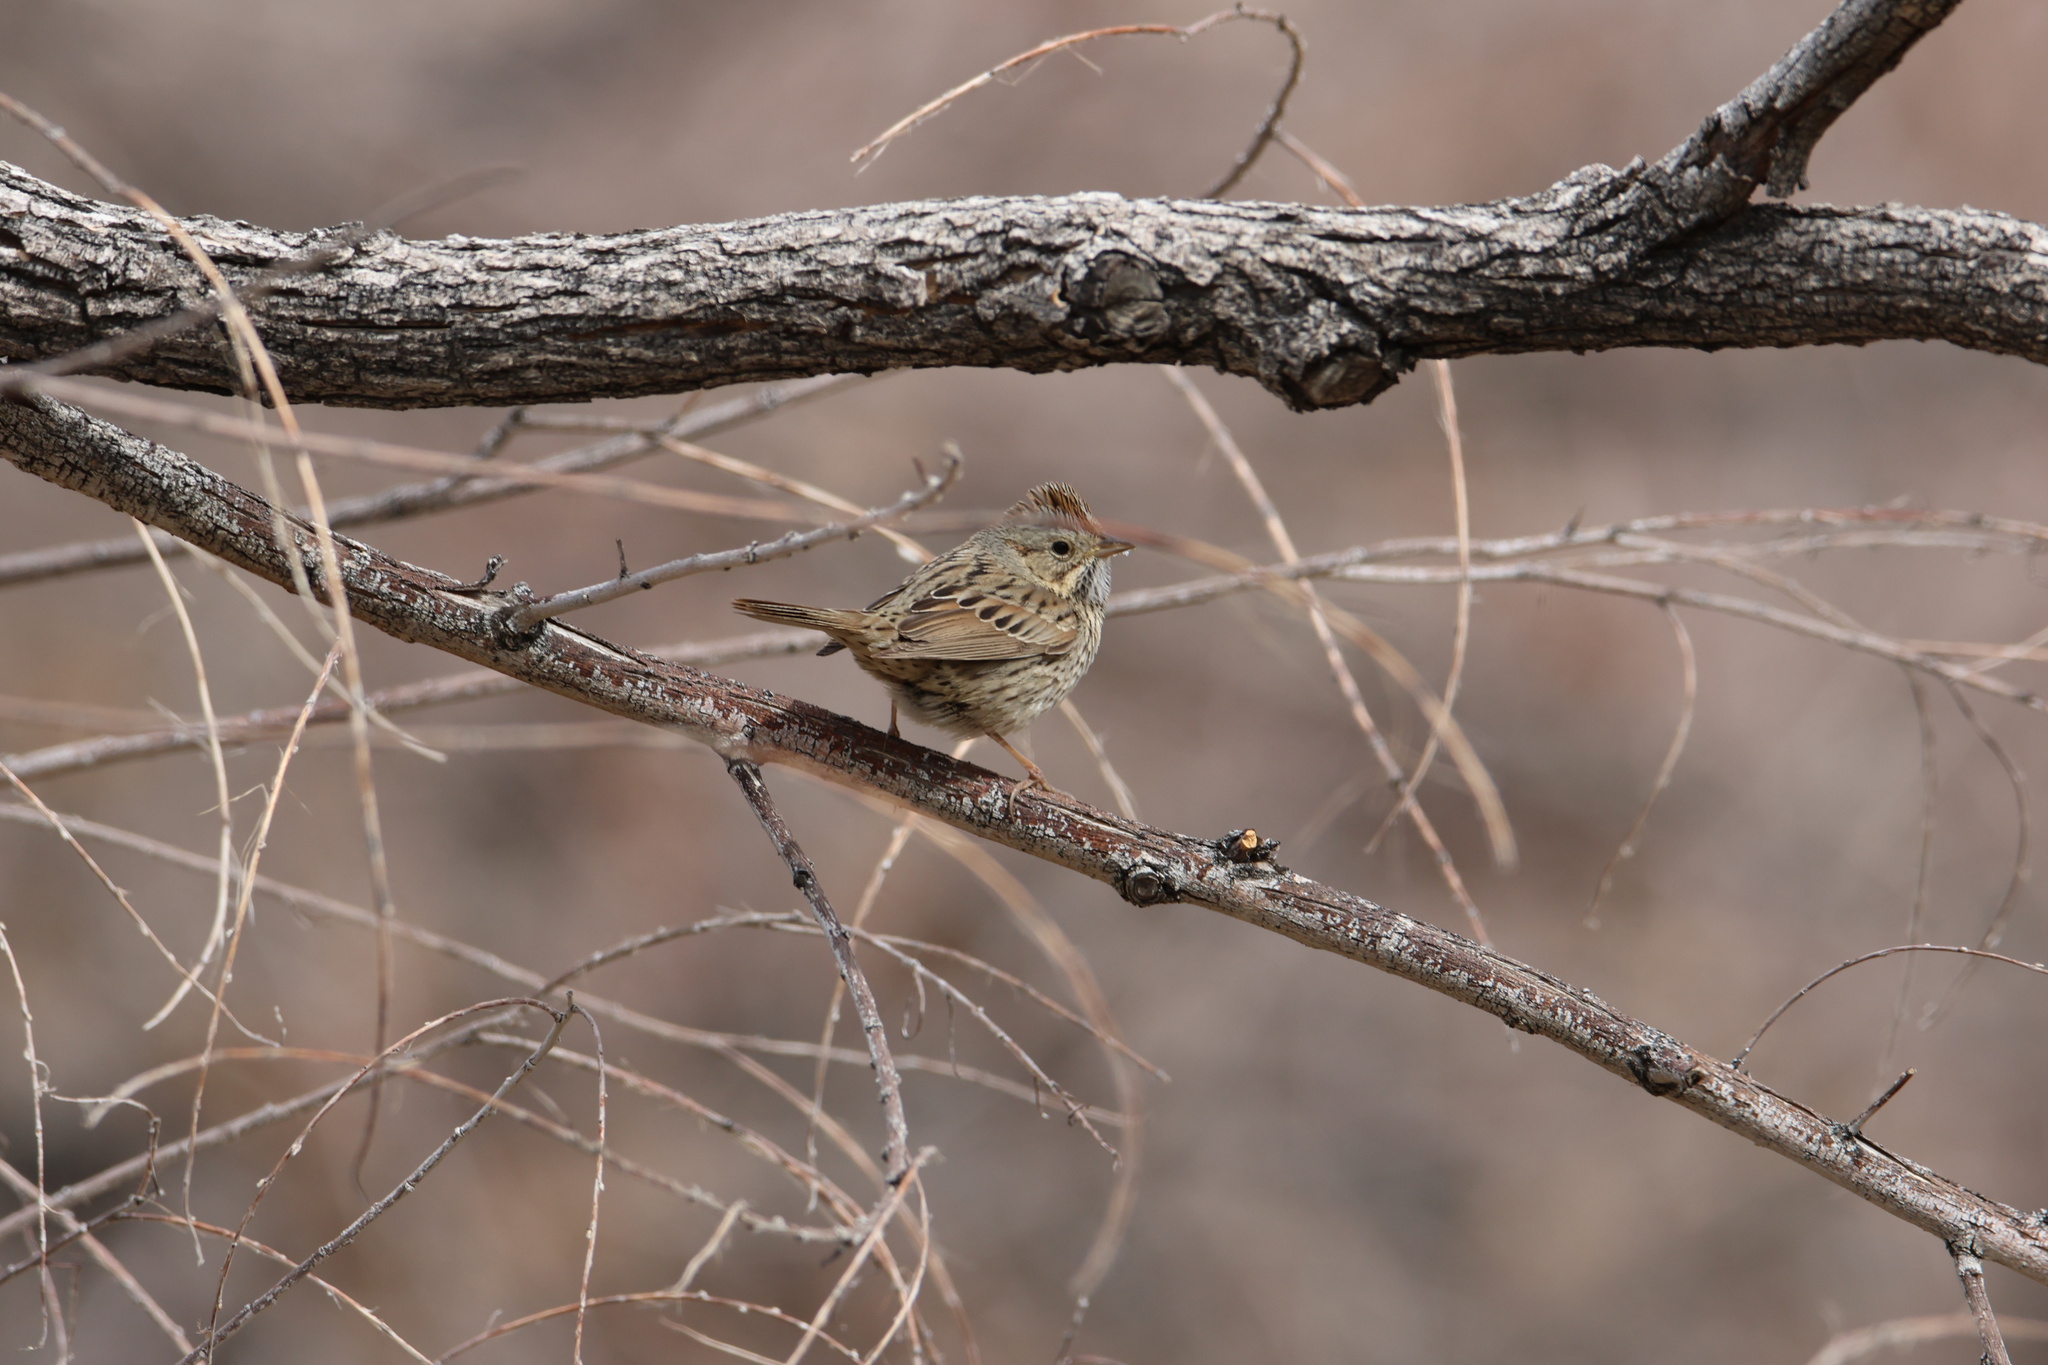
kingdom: Animalia
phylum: Chordata
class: Aves
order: Passeriformes
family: Passerellidae
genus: Melospiza
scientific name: Melospiza lincolnii
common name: Lincoln's sparrow
